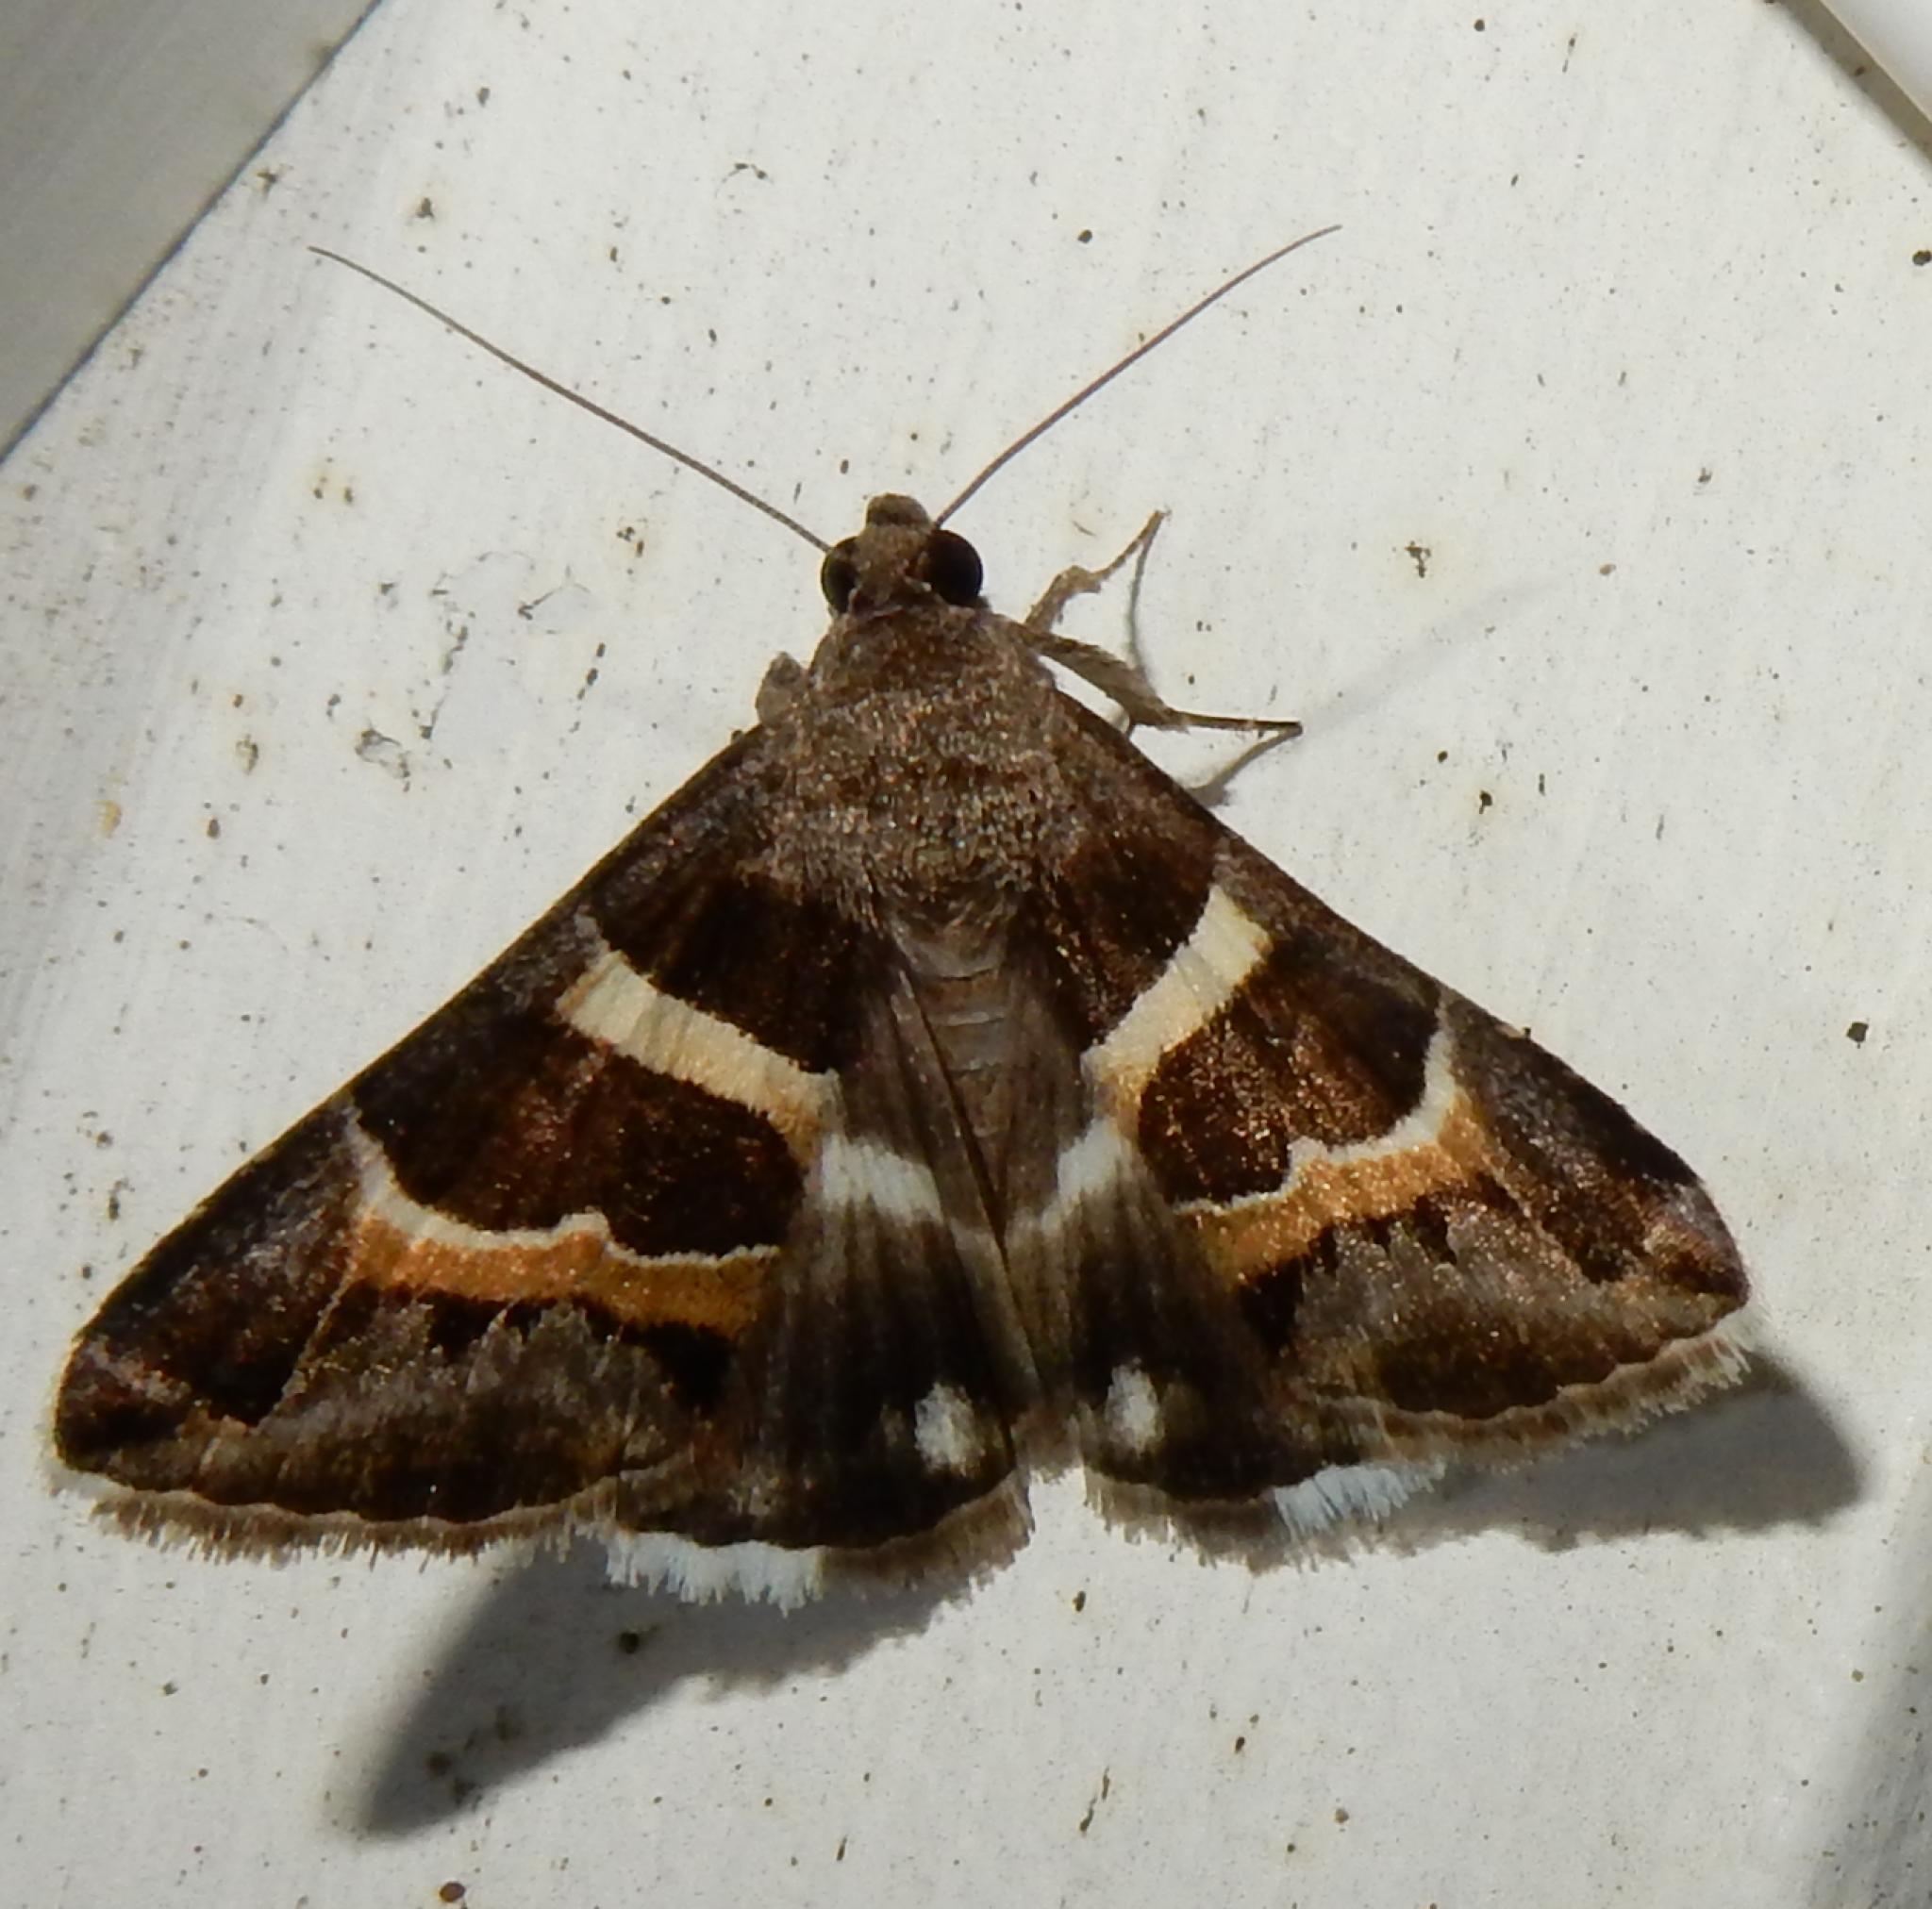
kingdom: Animalia
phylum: Arthropoda
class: Insecta
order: Lepidoptera
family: Erebidae
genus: Grammodes
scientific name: Grammodes stolida
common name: Geometrician
